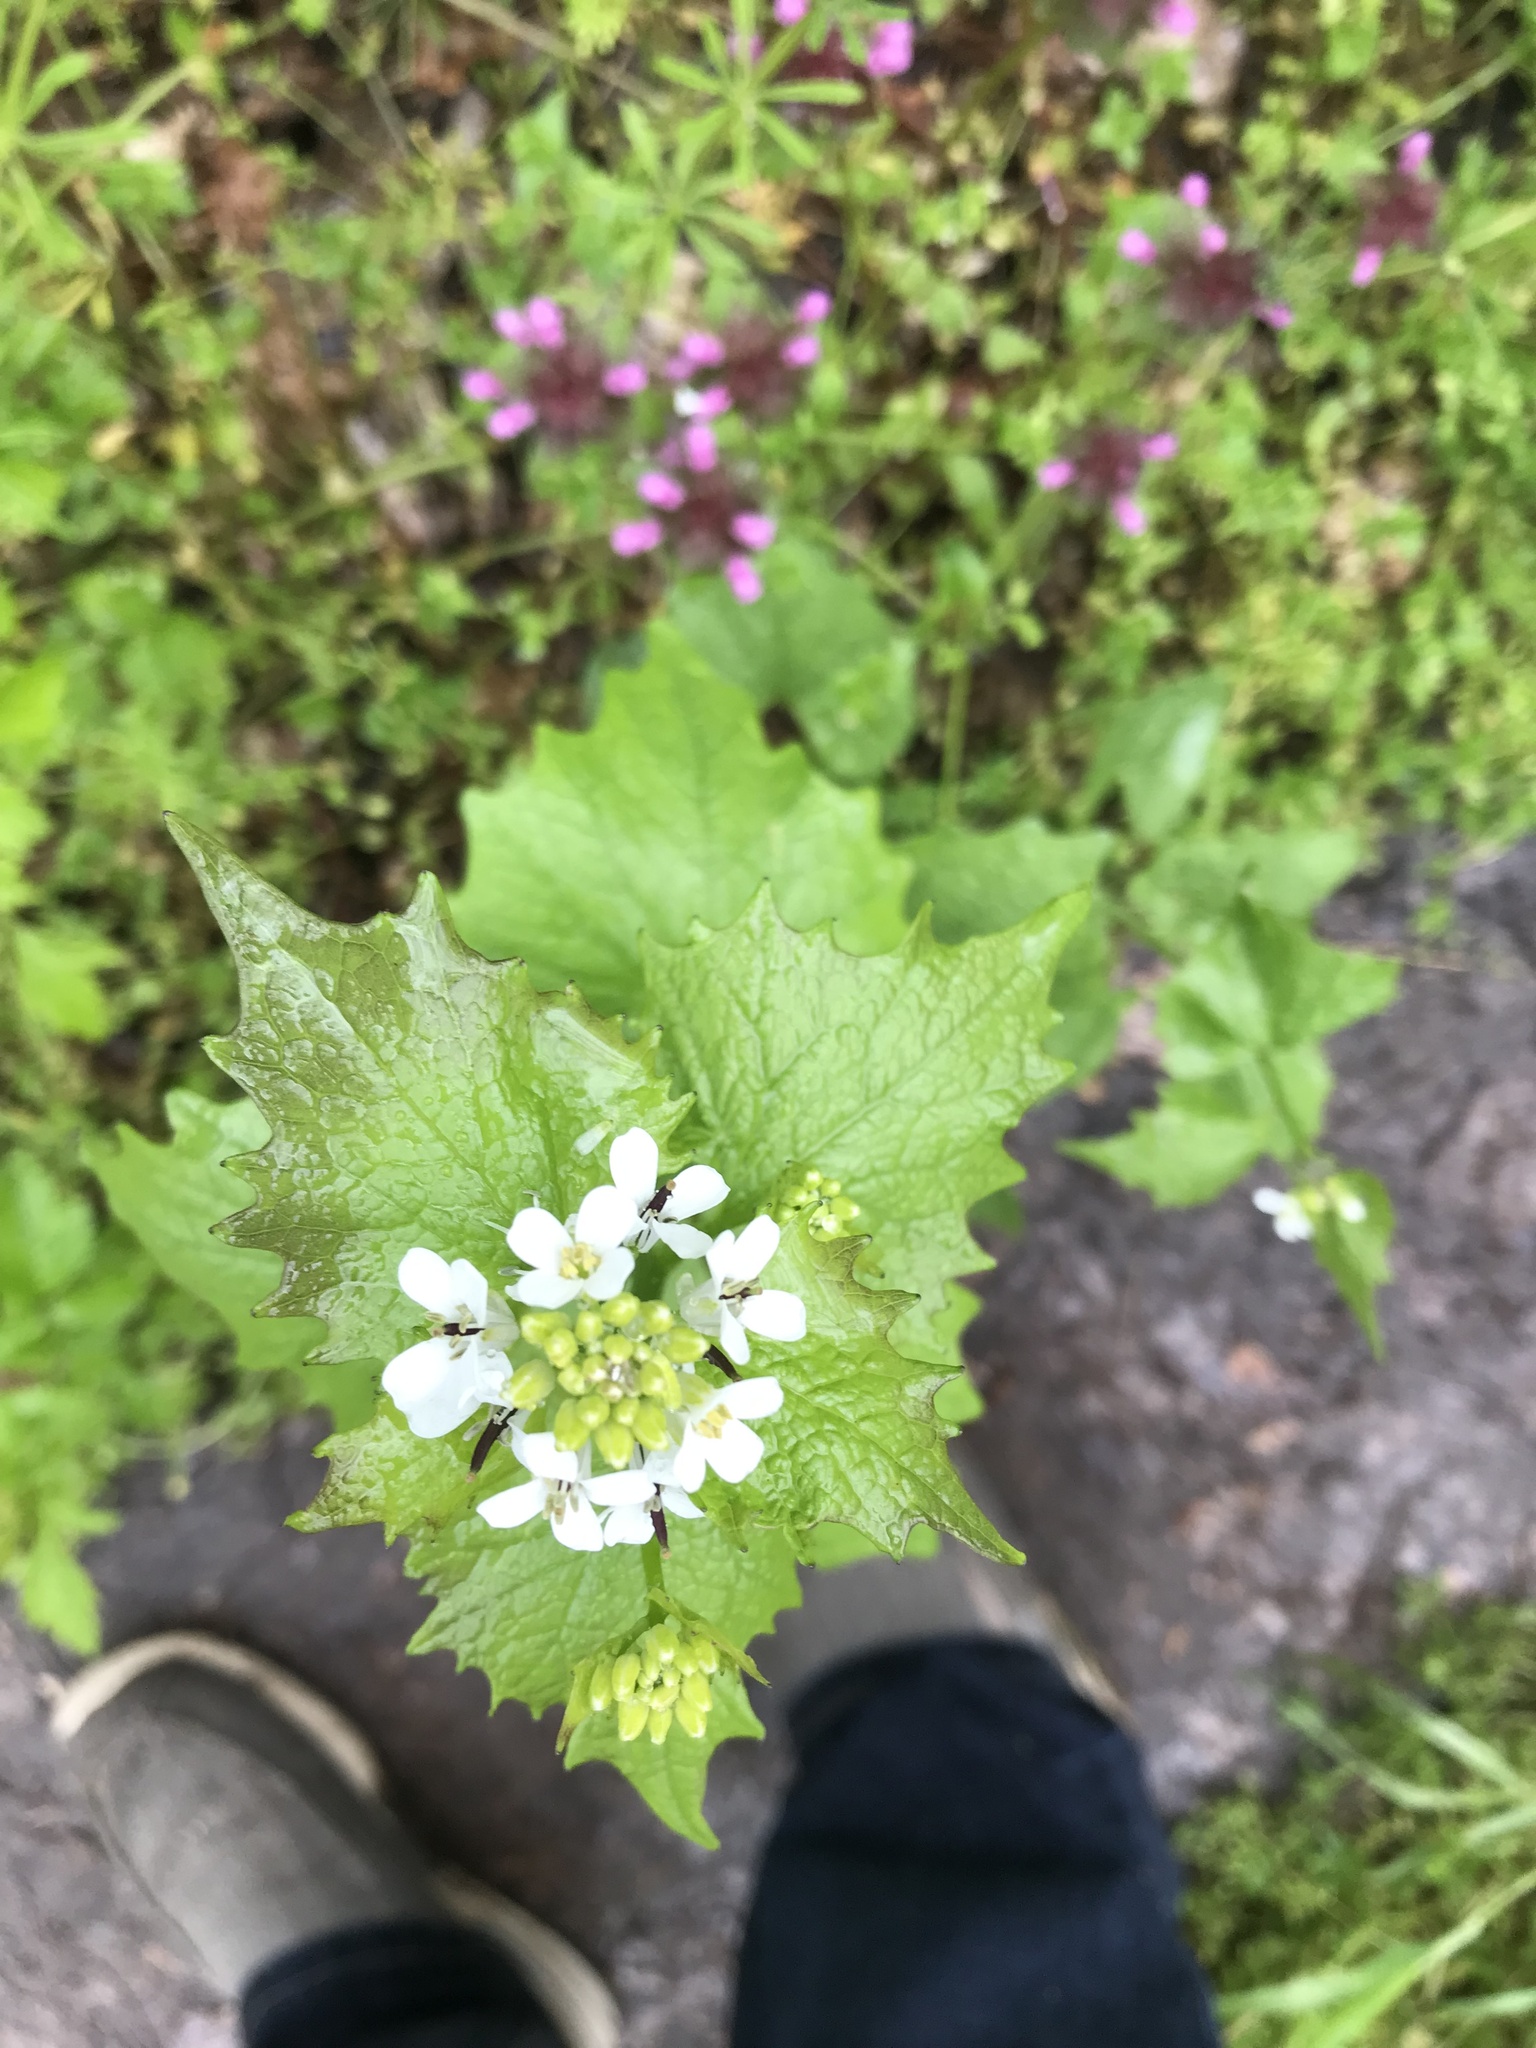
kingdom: Plantae
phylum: Tracheophyta
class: Magnoliopsida
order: Brassicales
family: Brassicaceae
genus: Alliaria
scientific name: Alliaria petiolata
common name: Garlic mustard
